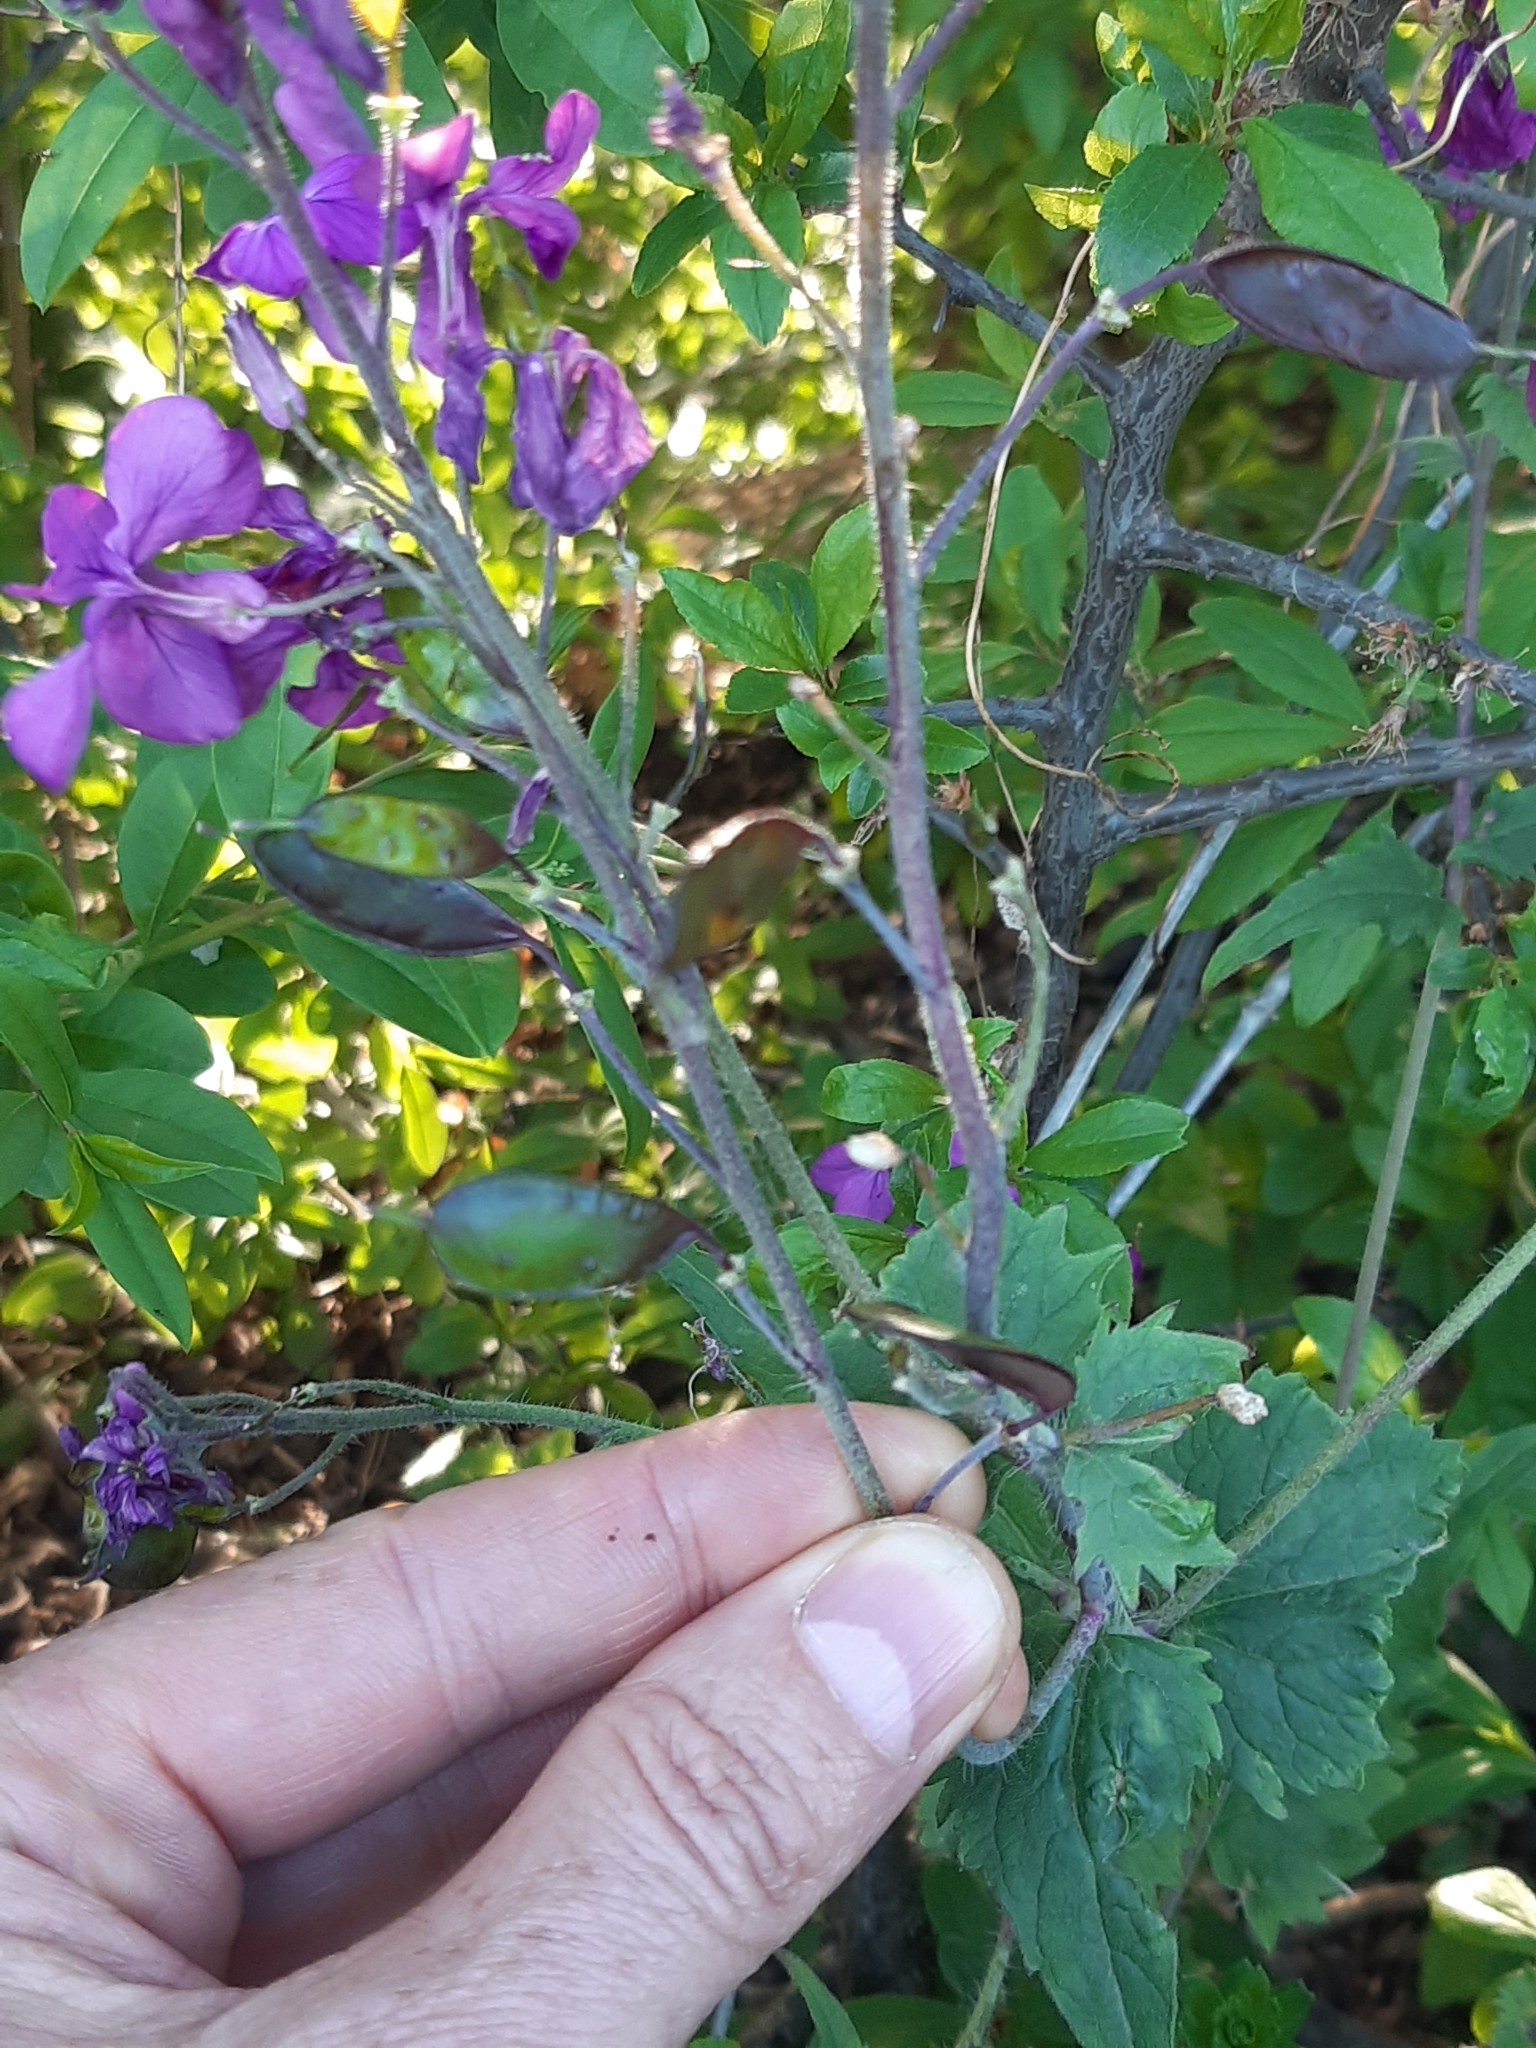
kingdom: Plantae
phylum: Tracheophyta
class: Magnoliopsida
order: Brassicales
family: Brassicaceae
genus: Lunaria
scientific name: Lunaria annua
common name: Honesty
